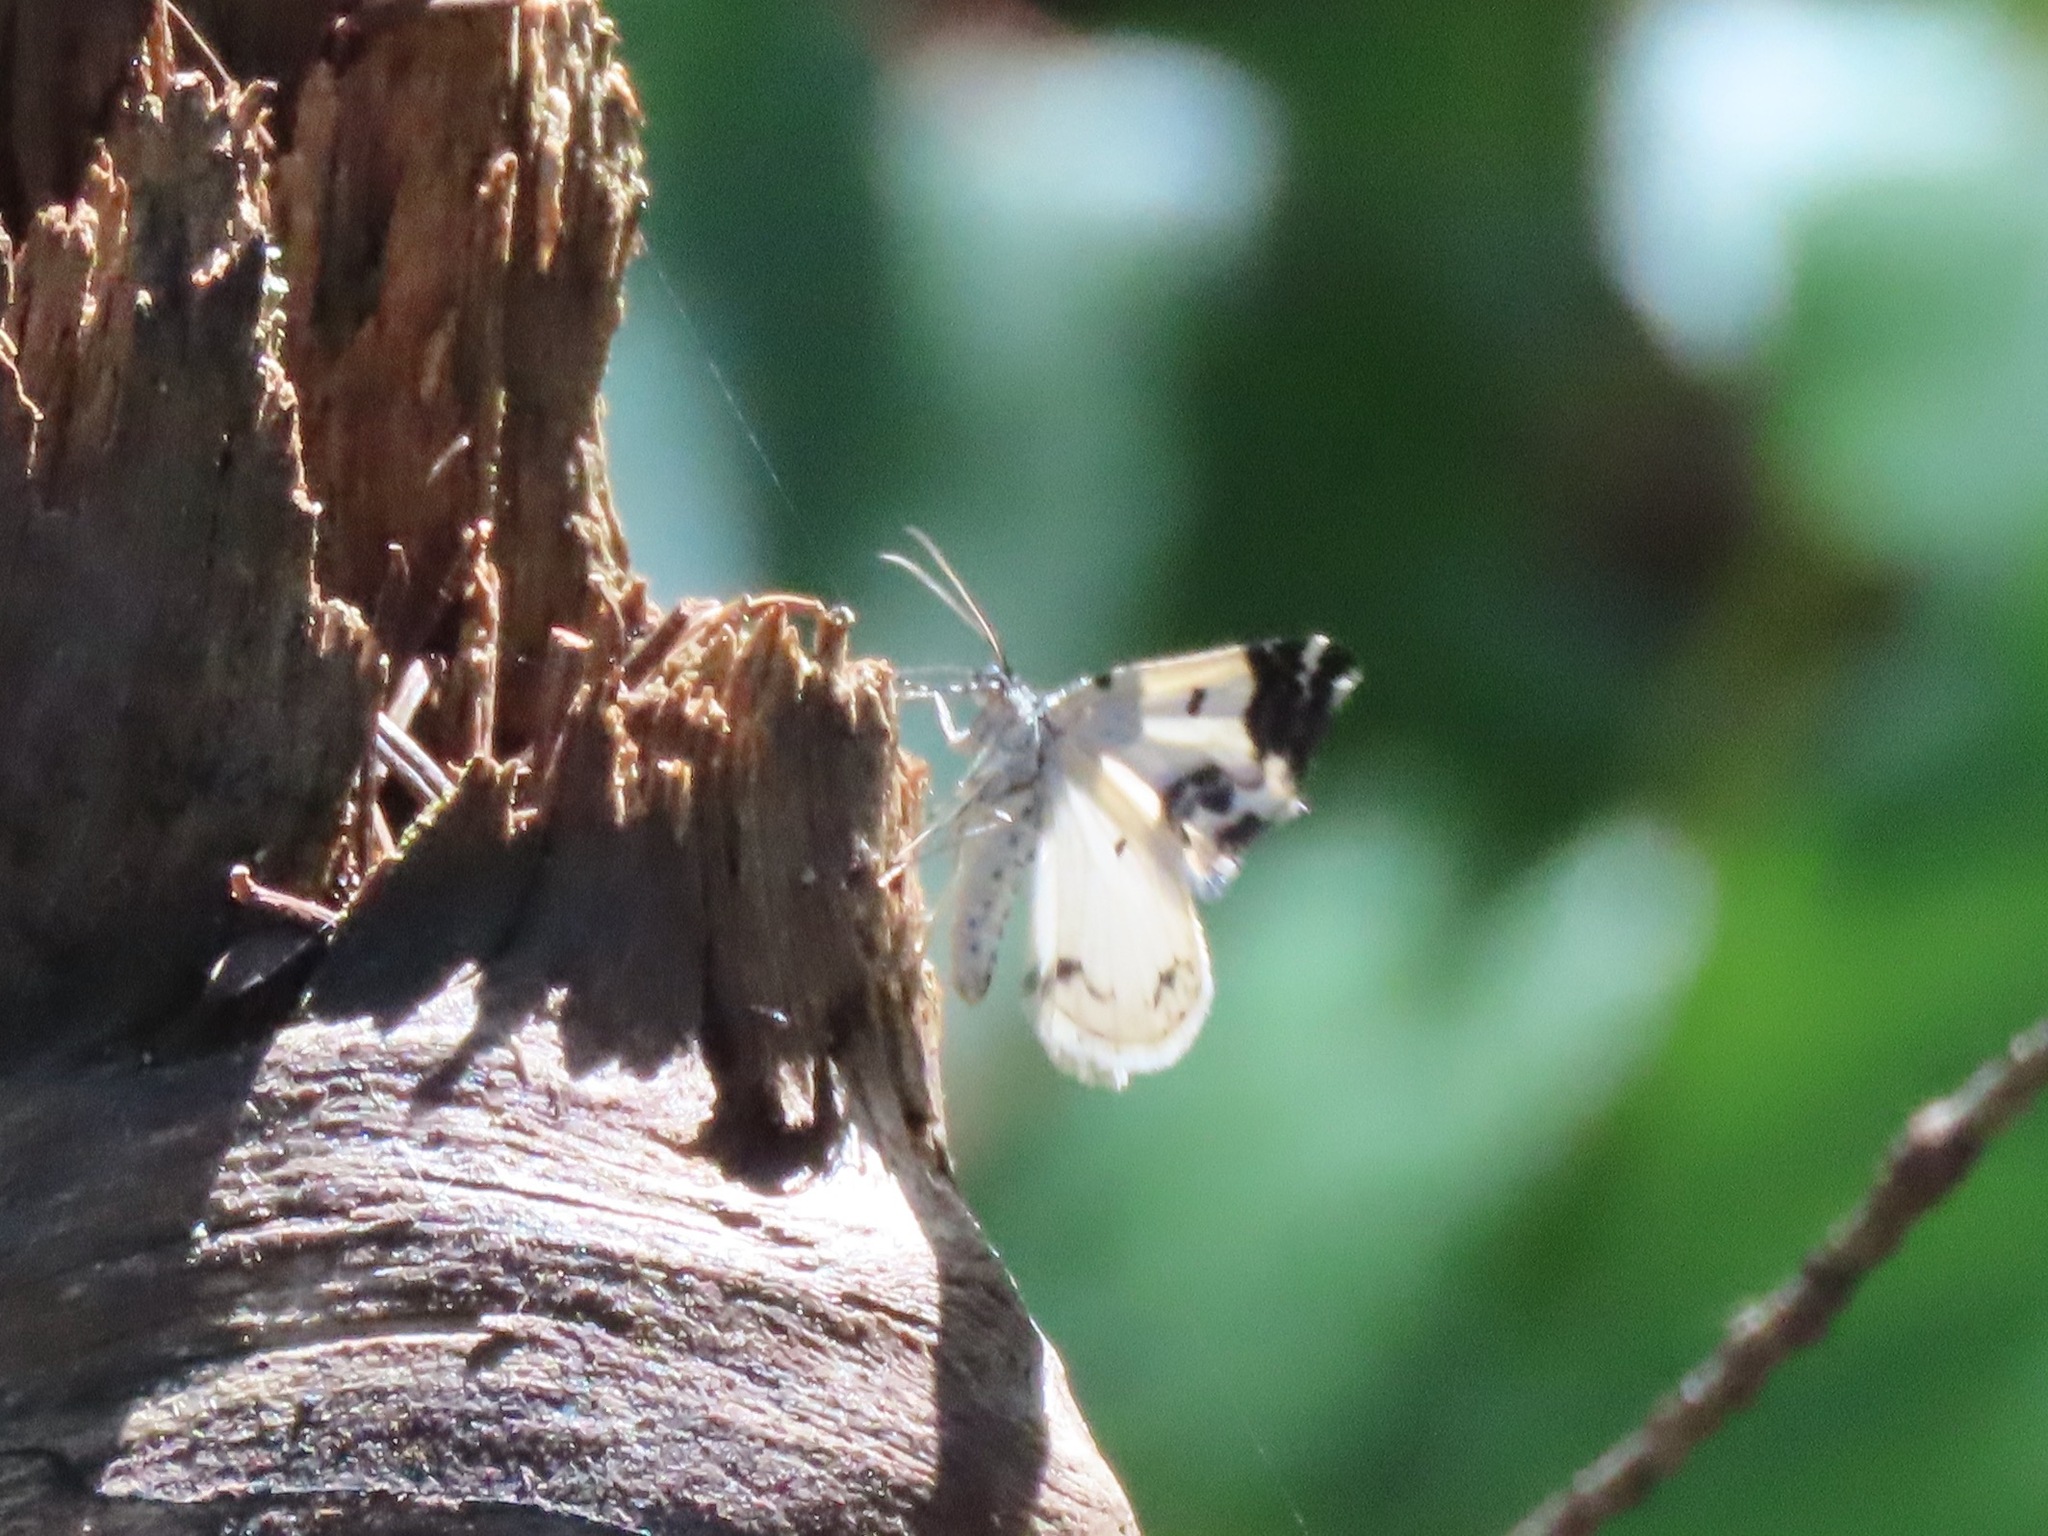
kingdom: Animalia
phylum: Arthropoda
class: Insecta
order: Lepidoptera
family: Geometridae
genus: Mesoleuca
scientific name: Mesoleuca gratulata
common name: Half-white carpet moth
